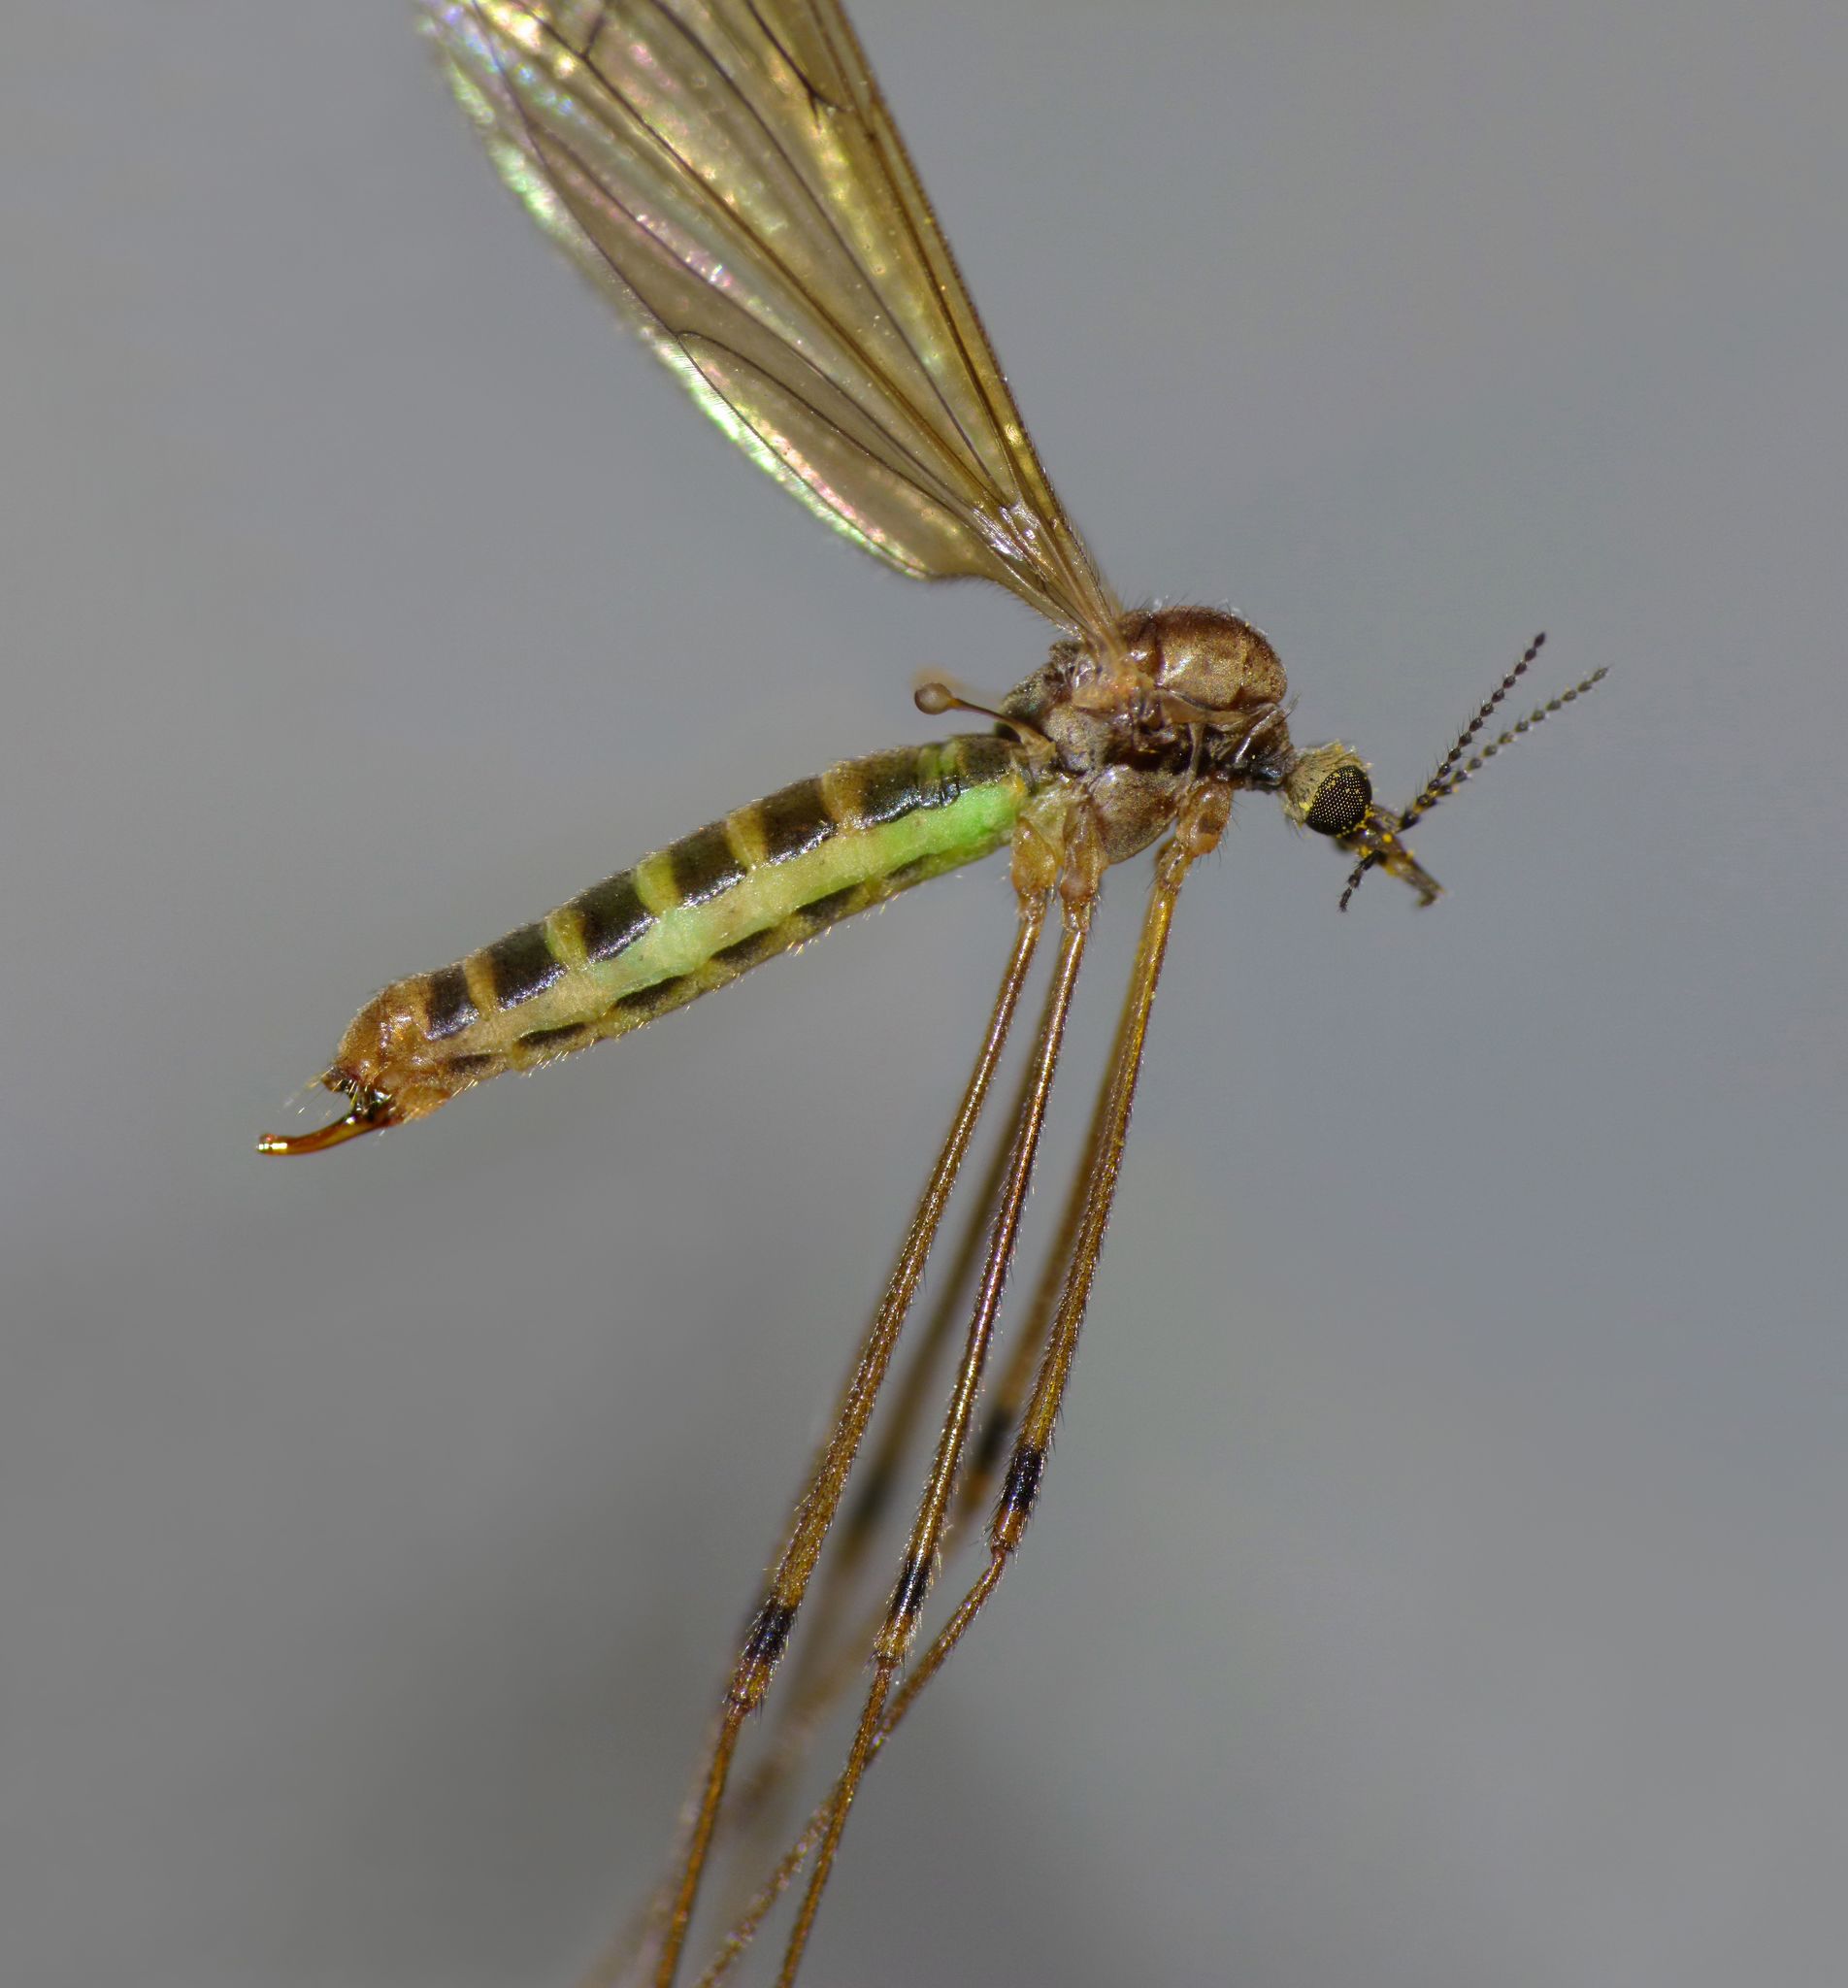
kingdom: Animalia
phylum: Arthropoda
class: Insecta
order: Diptera
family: Limoniidae
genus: Dicranomyia
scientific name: Dicranomyia melanogramma
